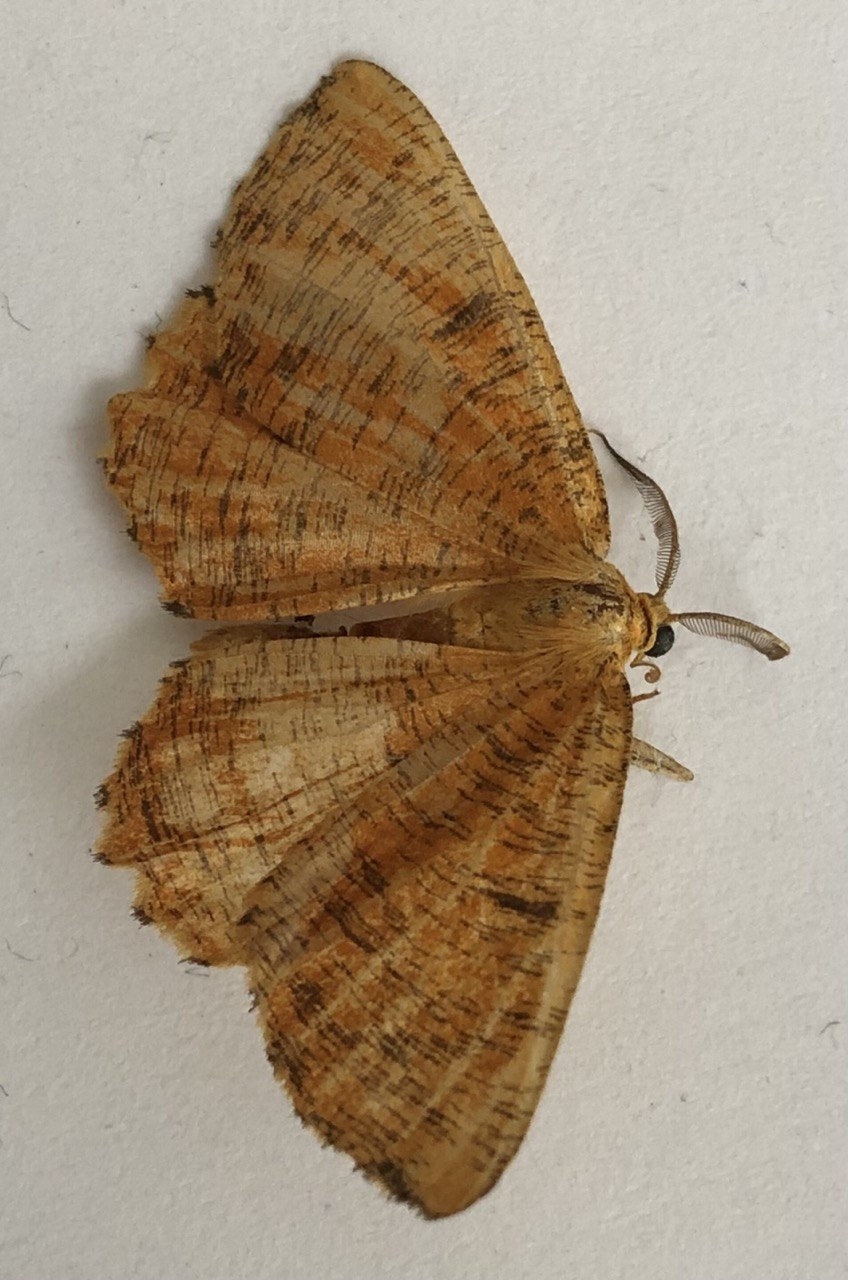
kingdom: Animalia
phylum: Arthropoda
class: Insecta
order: Lepidoptera
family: Geometridae
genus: Angerona
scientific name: Angerona prunaria
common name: Orange moth
